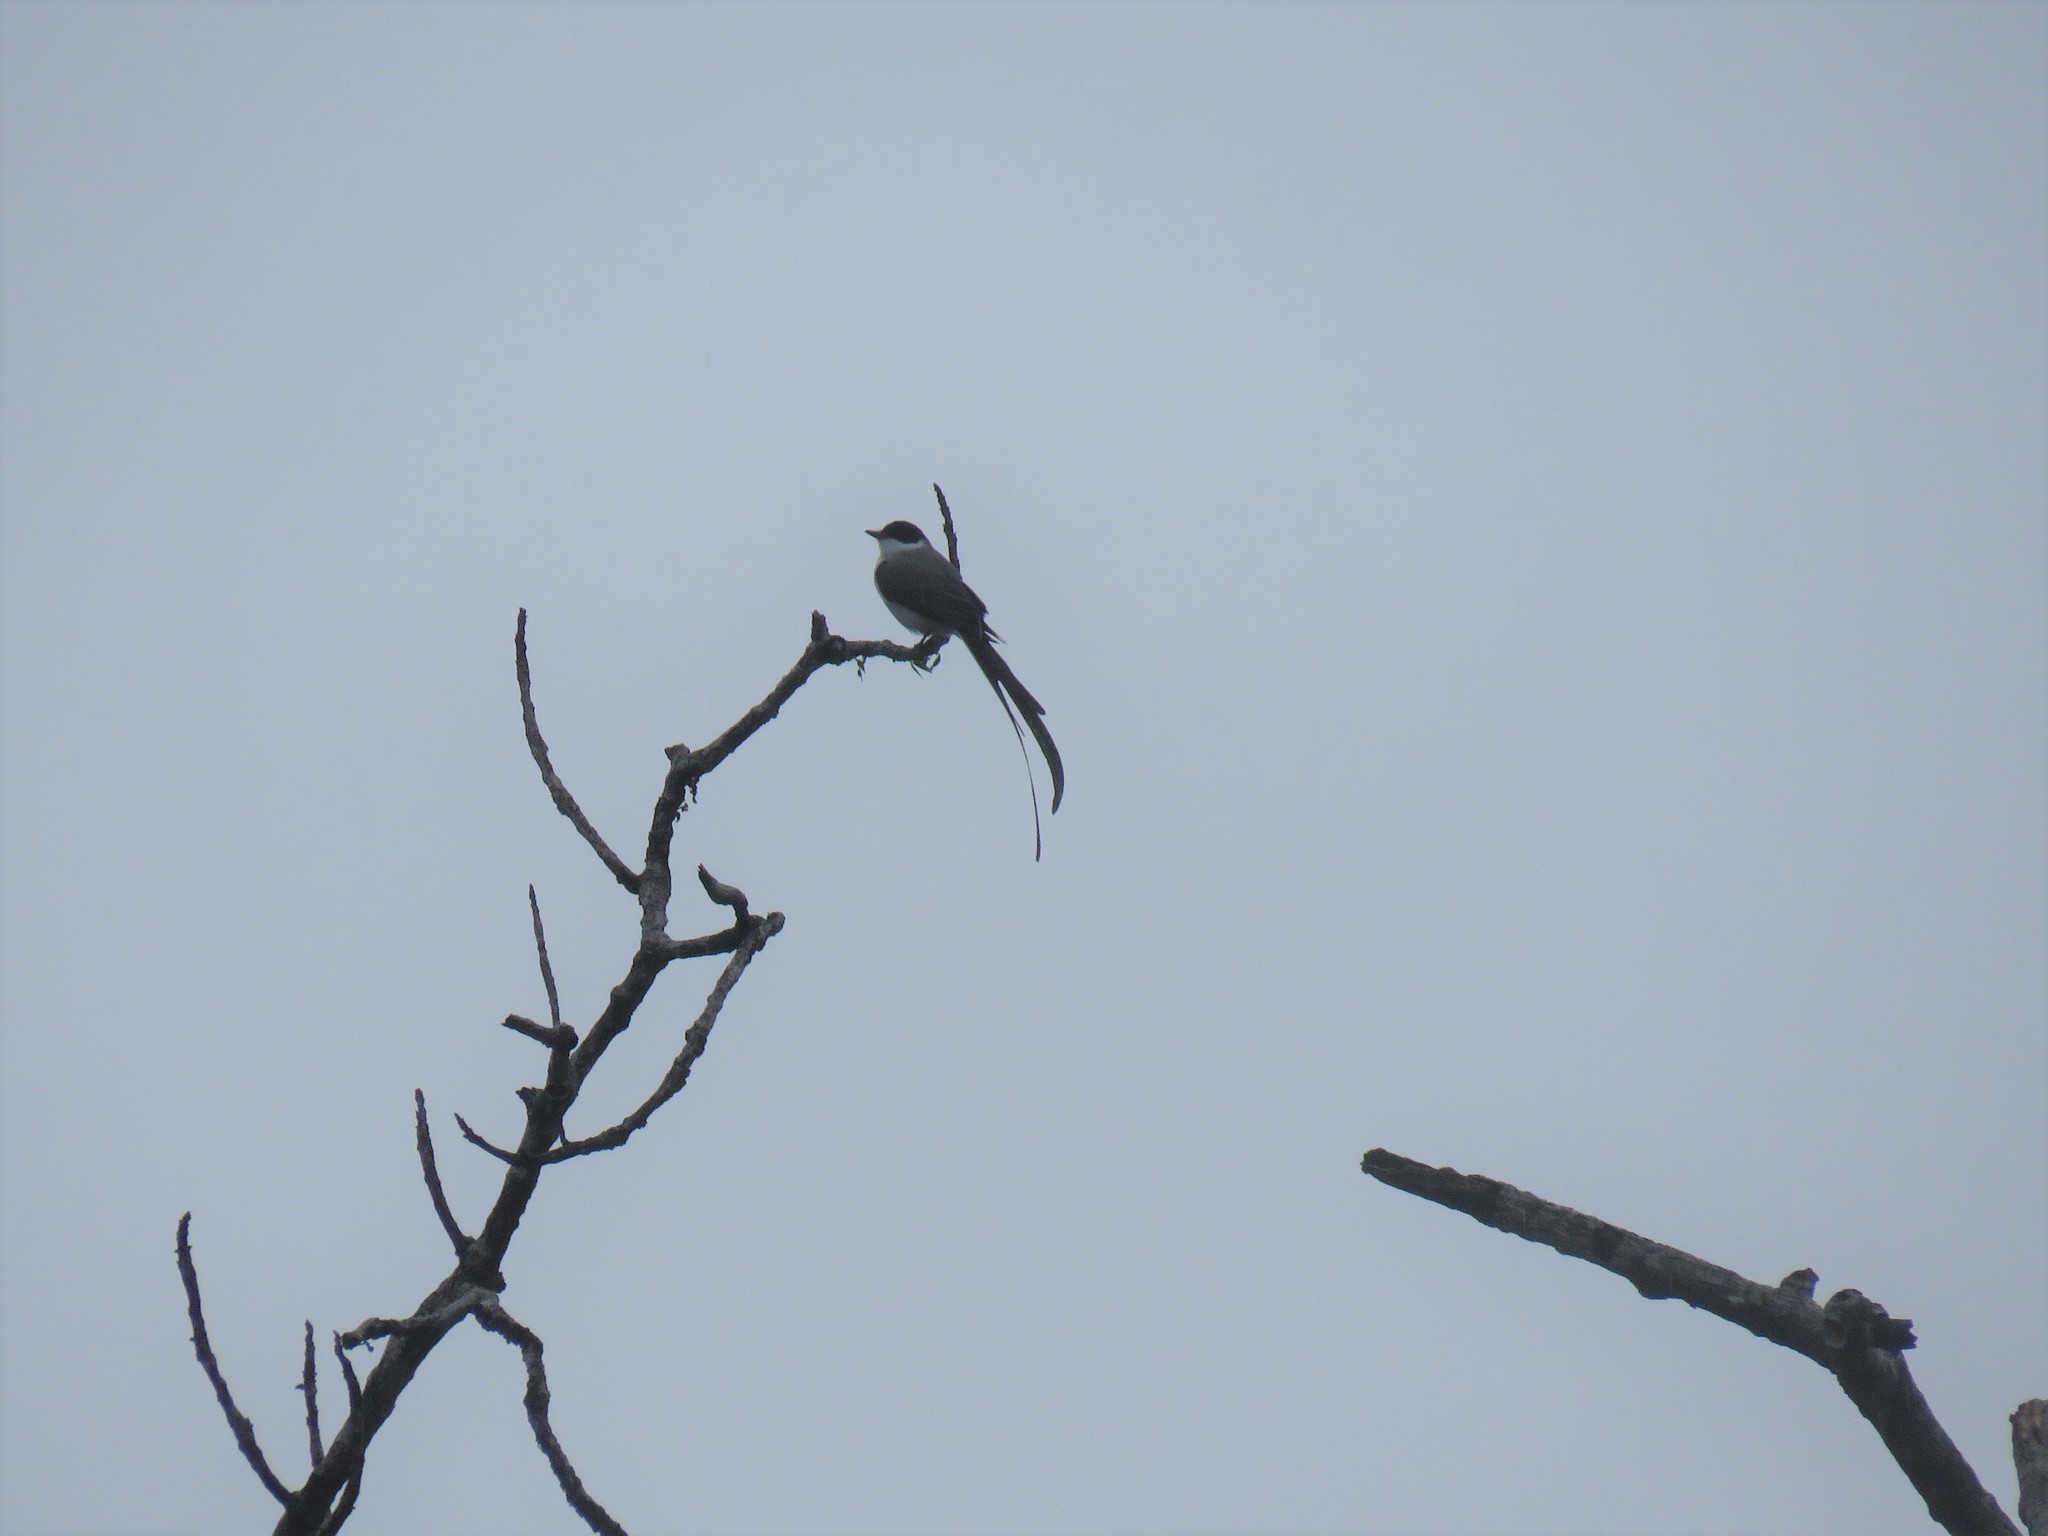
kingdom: Animalia
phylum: Chordata
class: Aves
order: Passeriformes
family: Tyrannidae
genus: Tyrannus
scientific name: Tyrannus savana
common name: Fork-tailed flycatcher
